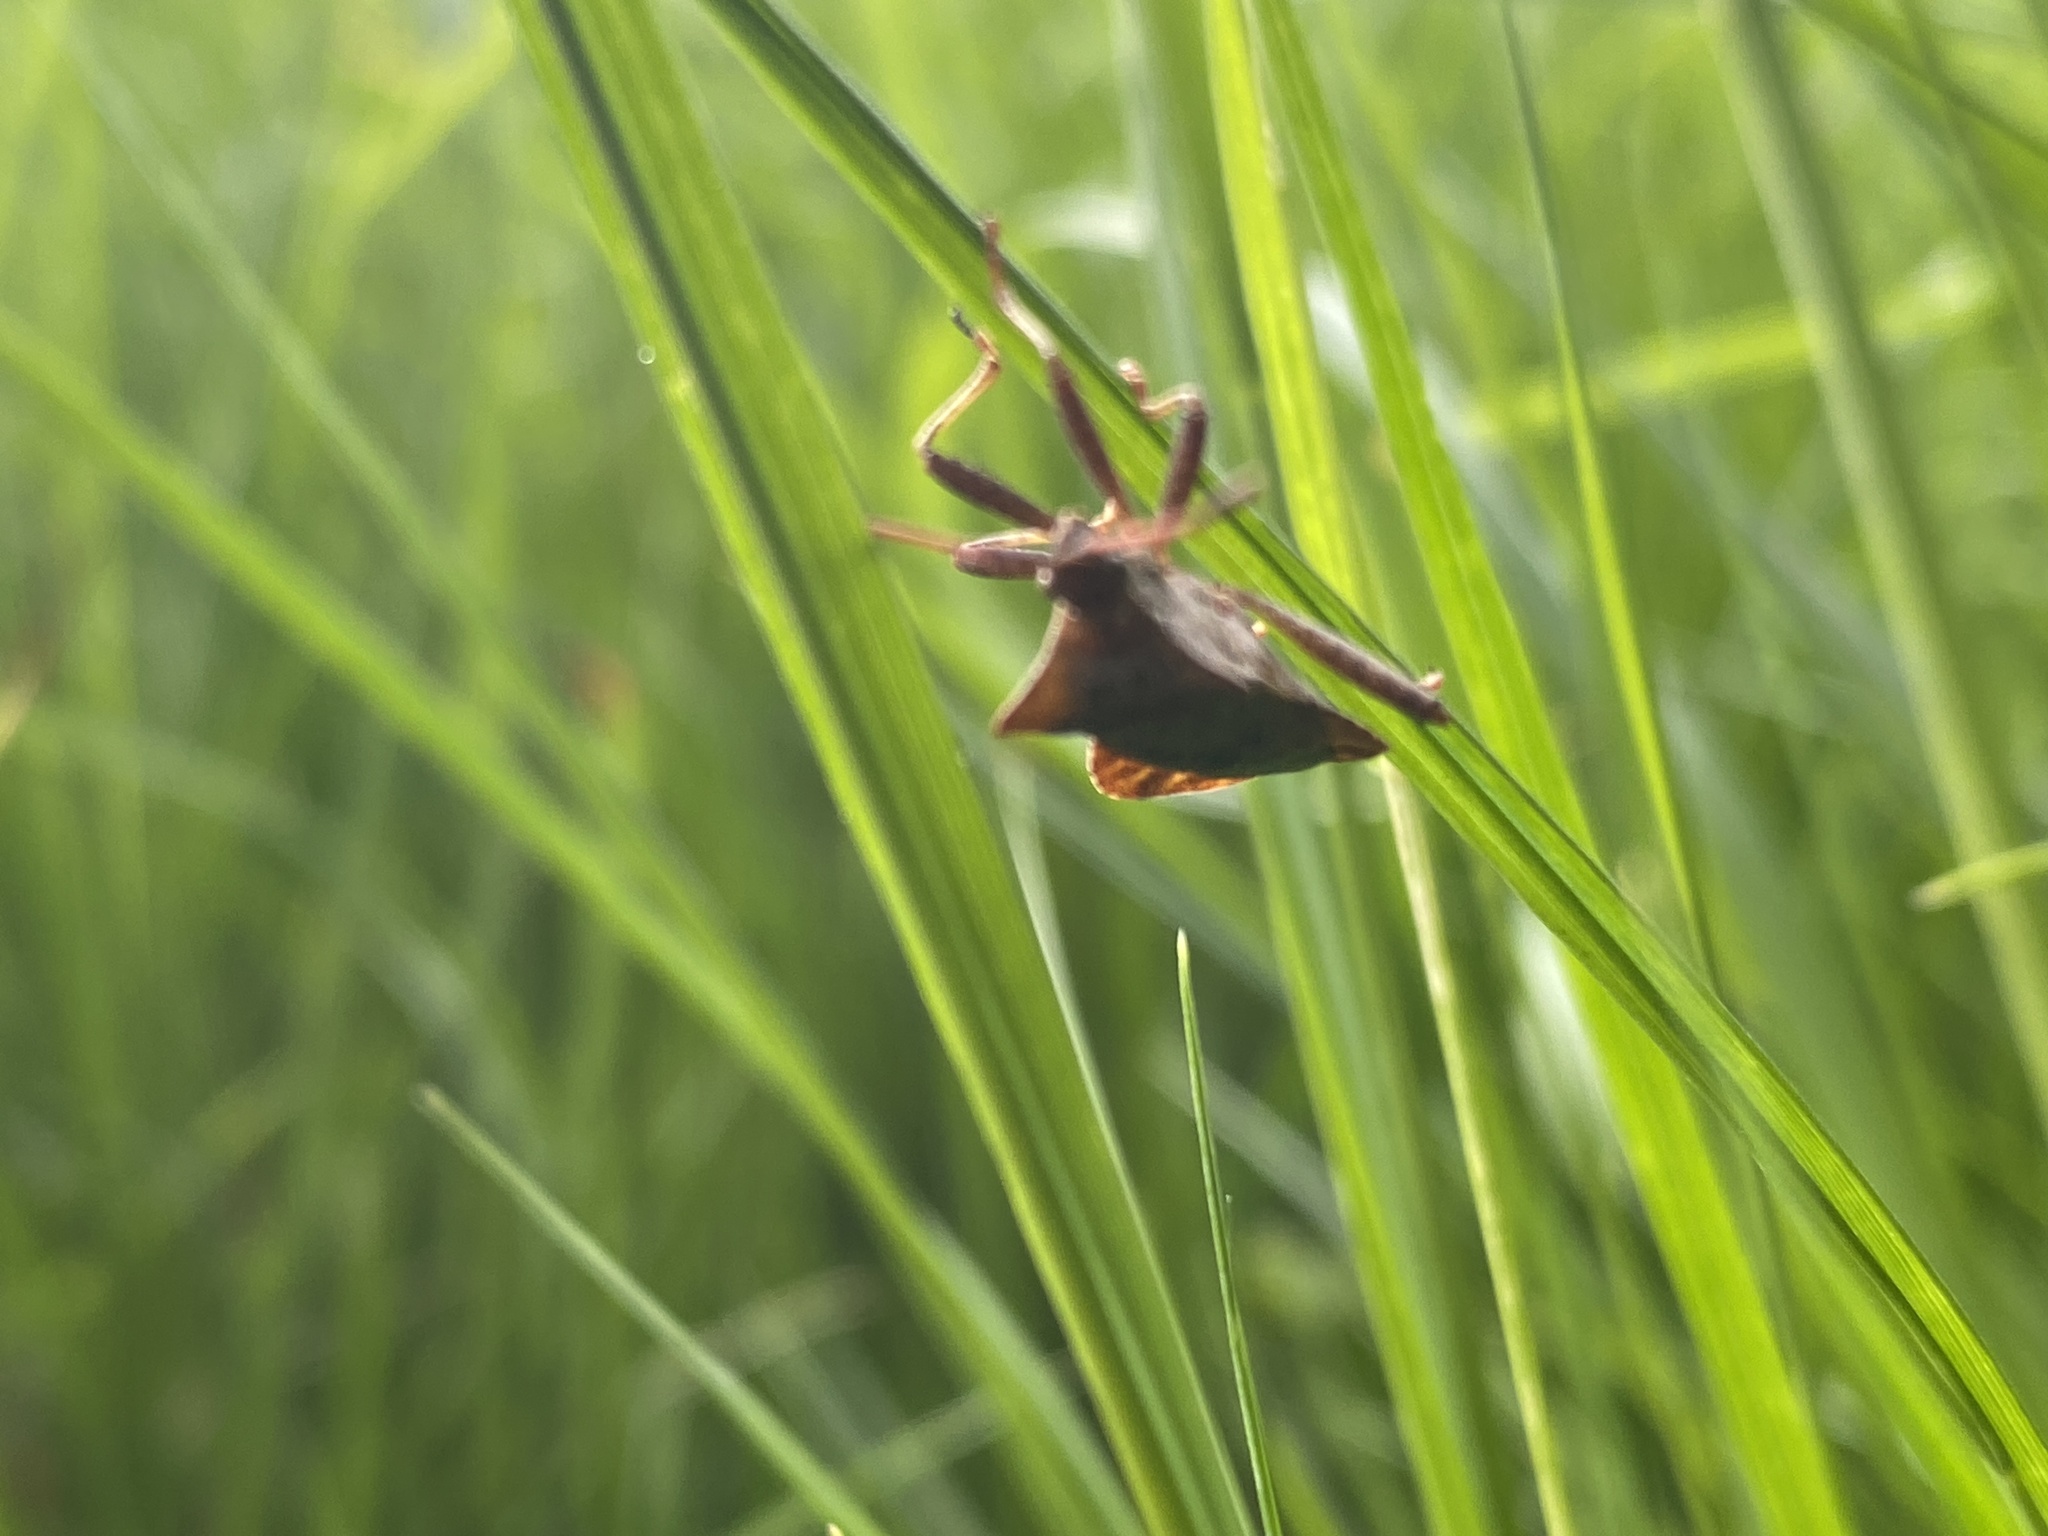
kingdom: Animalia
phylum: Arthropoda
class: Insecta
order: Hemiptera
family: Coreidae
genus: Coreus
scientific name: Coreus marginatus
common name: Dock bug
